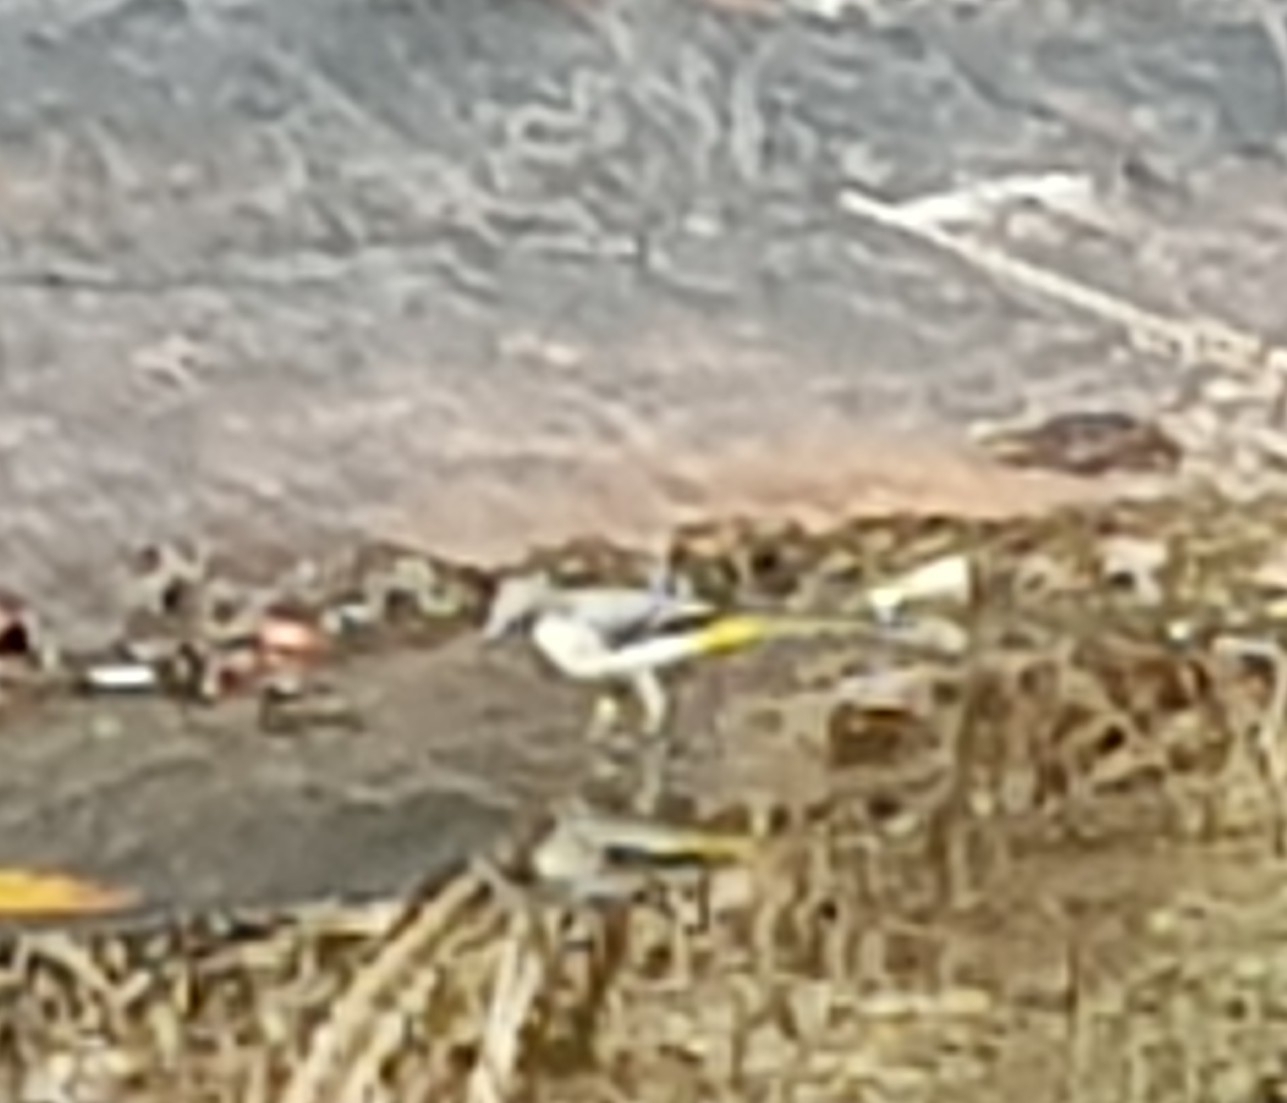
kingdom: Animalia
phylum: Chordata
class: Aves
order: Passeriformes
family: Motacillidae
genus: Motacilla
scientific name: Motacilla cinerea
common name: Grey wagtail
